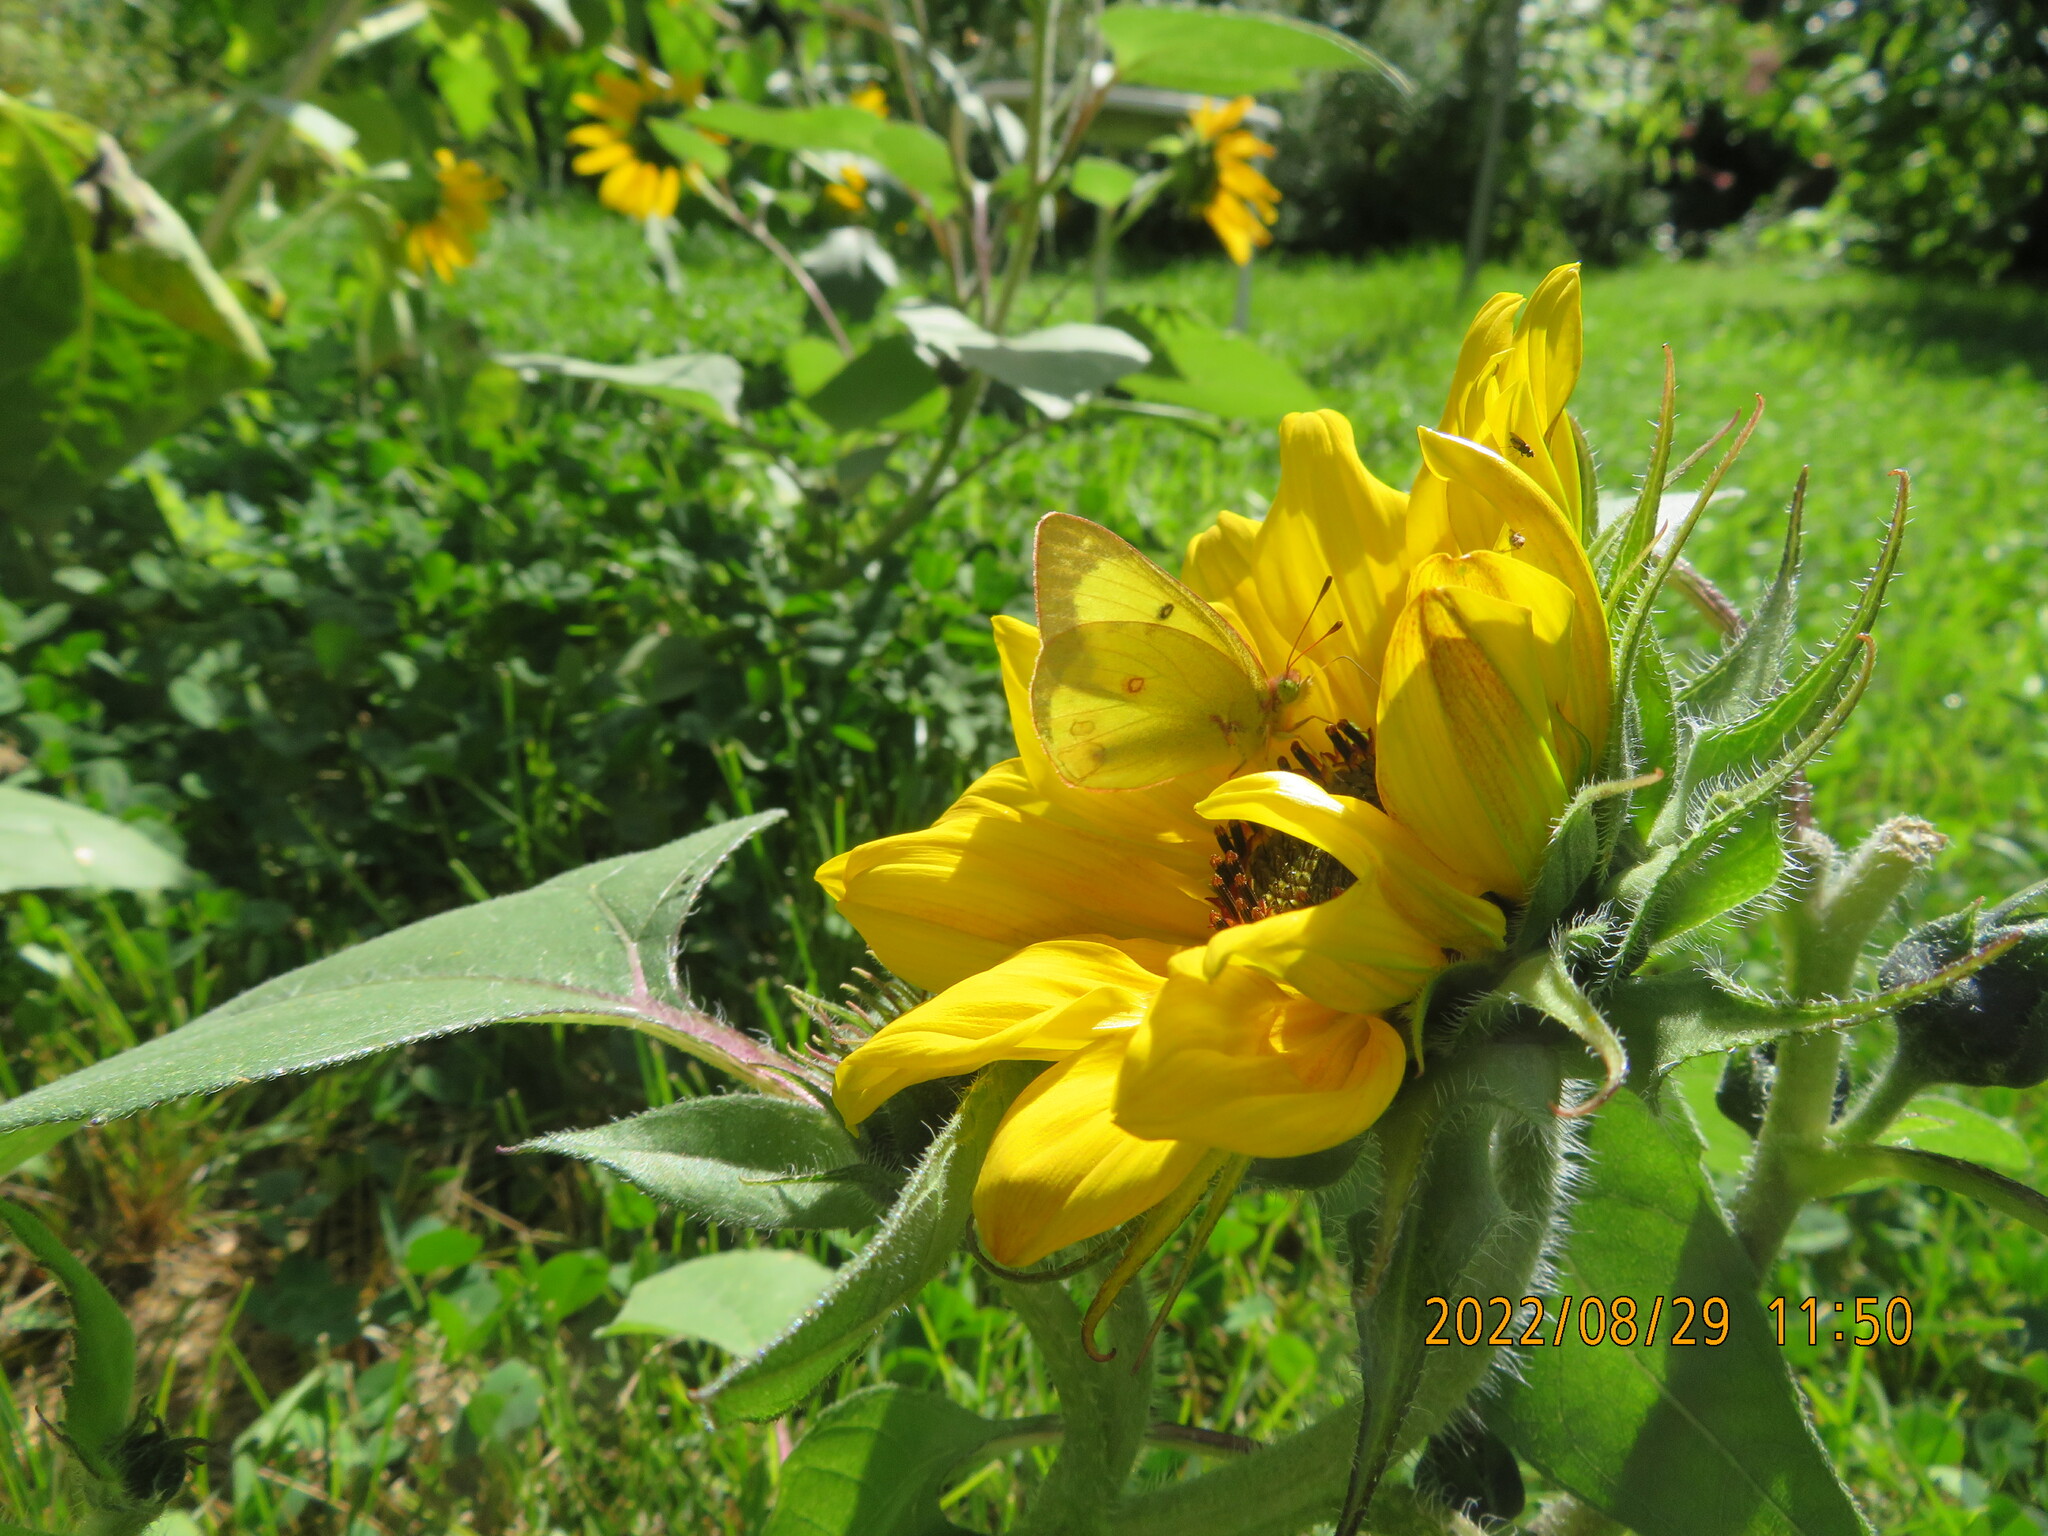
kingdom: Animalia
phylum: Arthropoda
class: Insecta
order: Lepidoptera
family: Pieridae
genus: Colias
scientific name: Colias philodice
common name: Clouded sulphur
